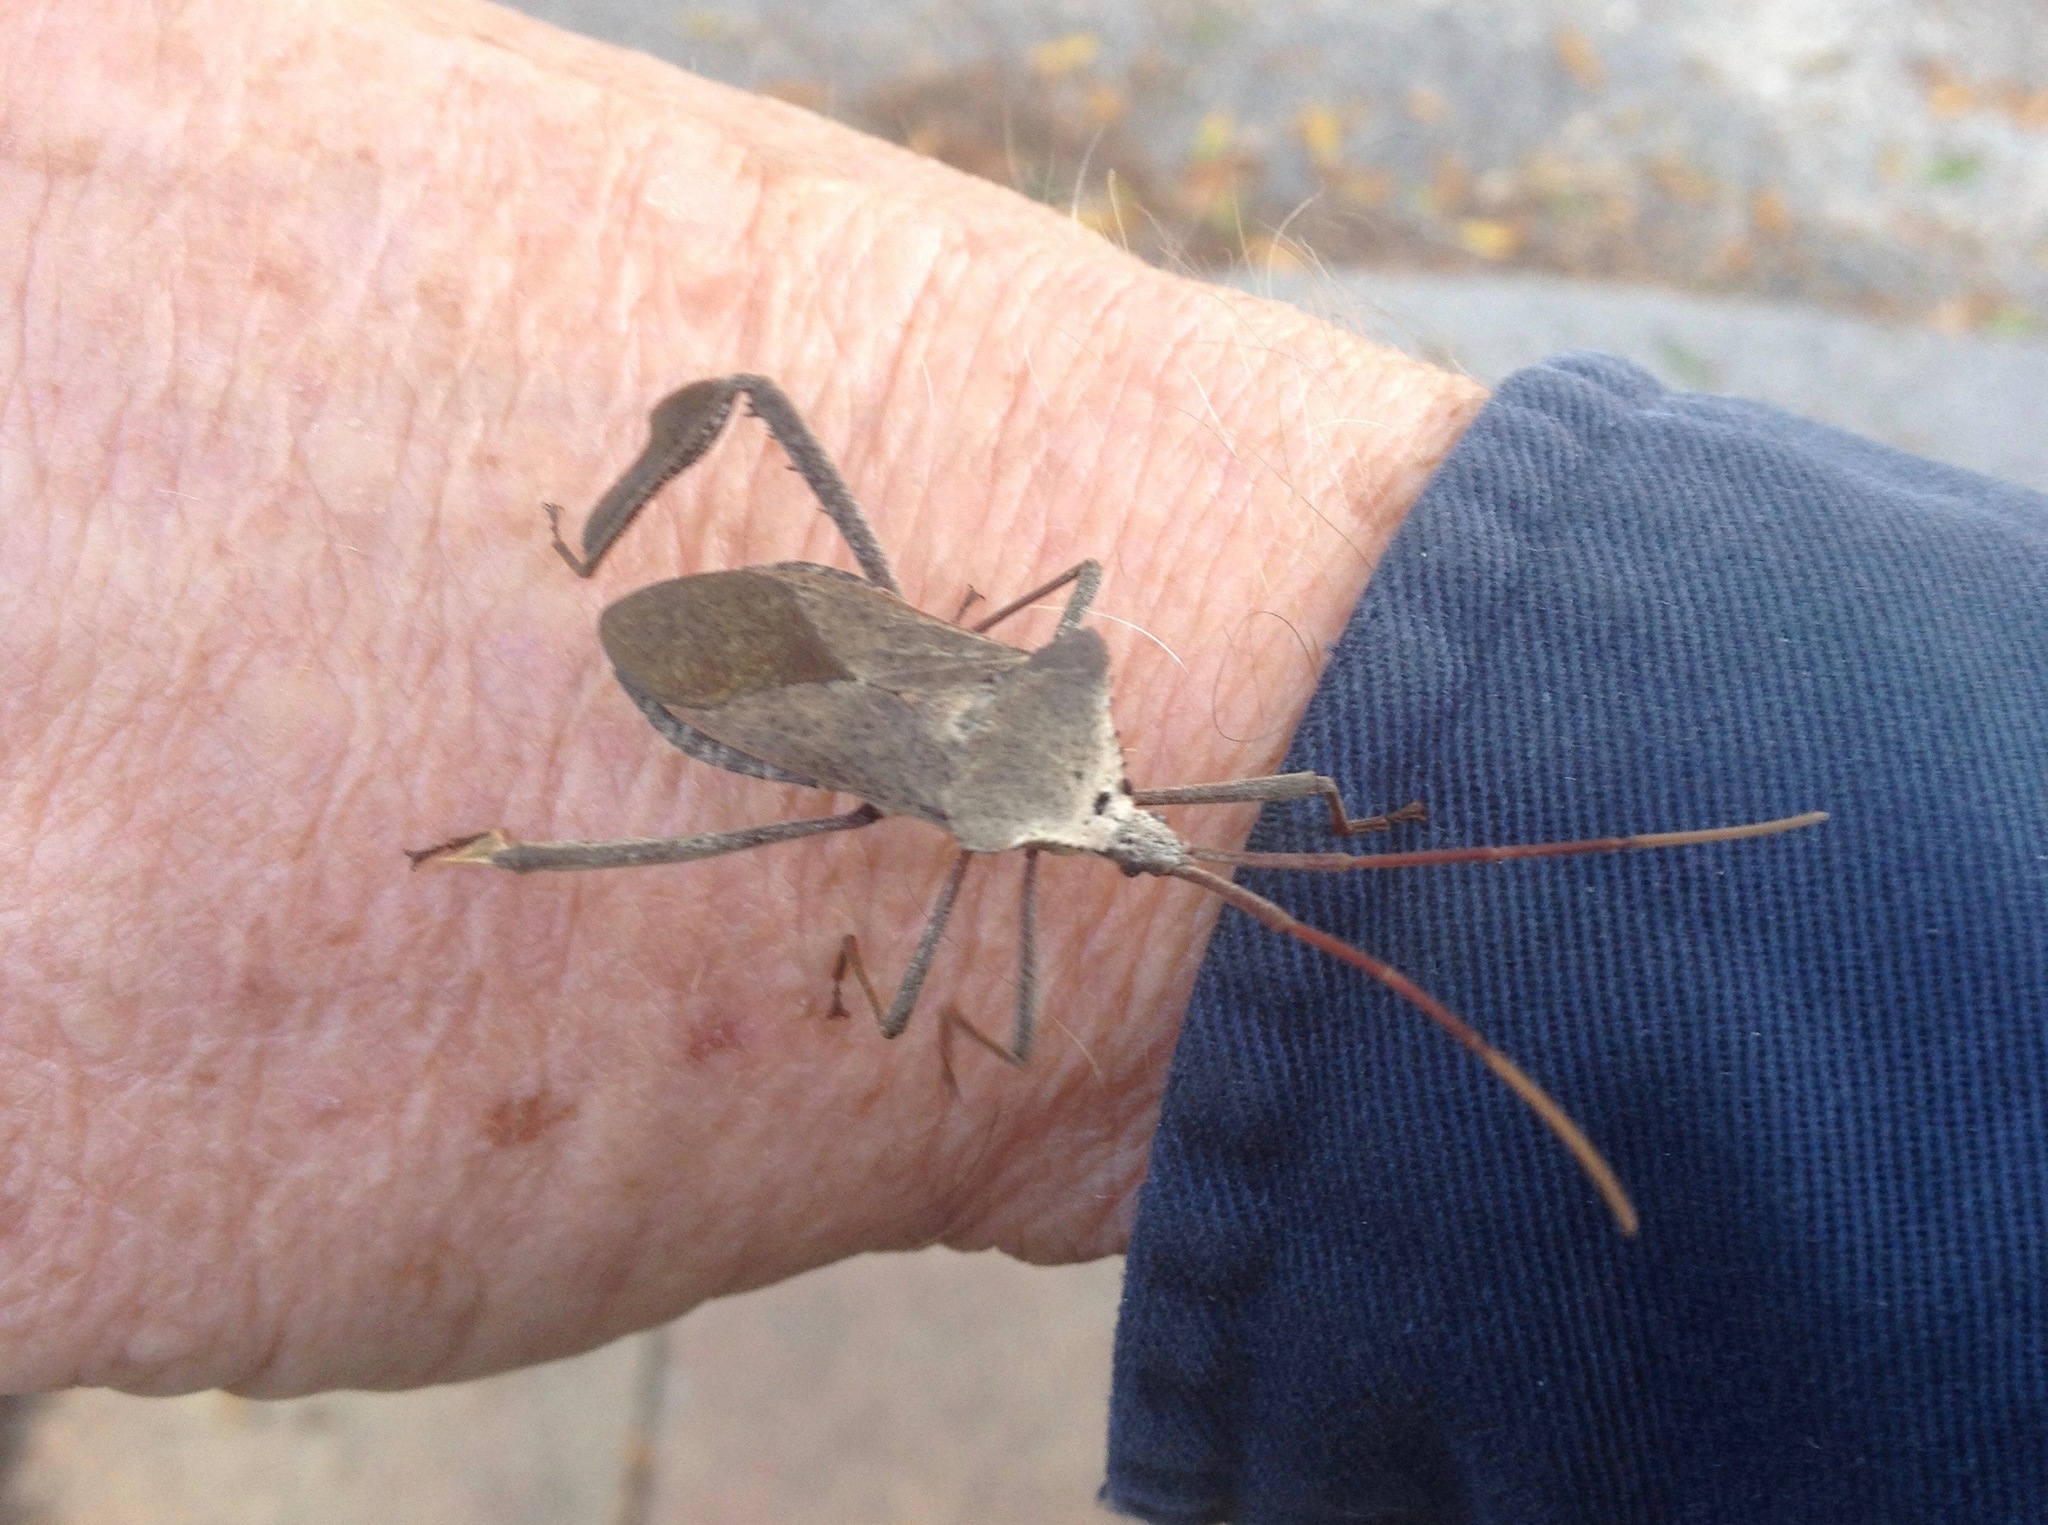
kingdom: Animalia
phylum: Arthropoda
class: Insecta
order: Hemiptera
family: Coreidae
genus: Acanthocephala
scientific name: Acanthocephala declivis
